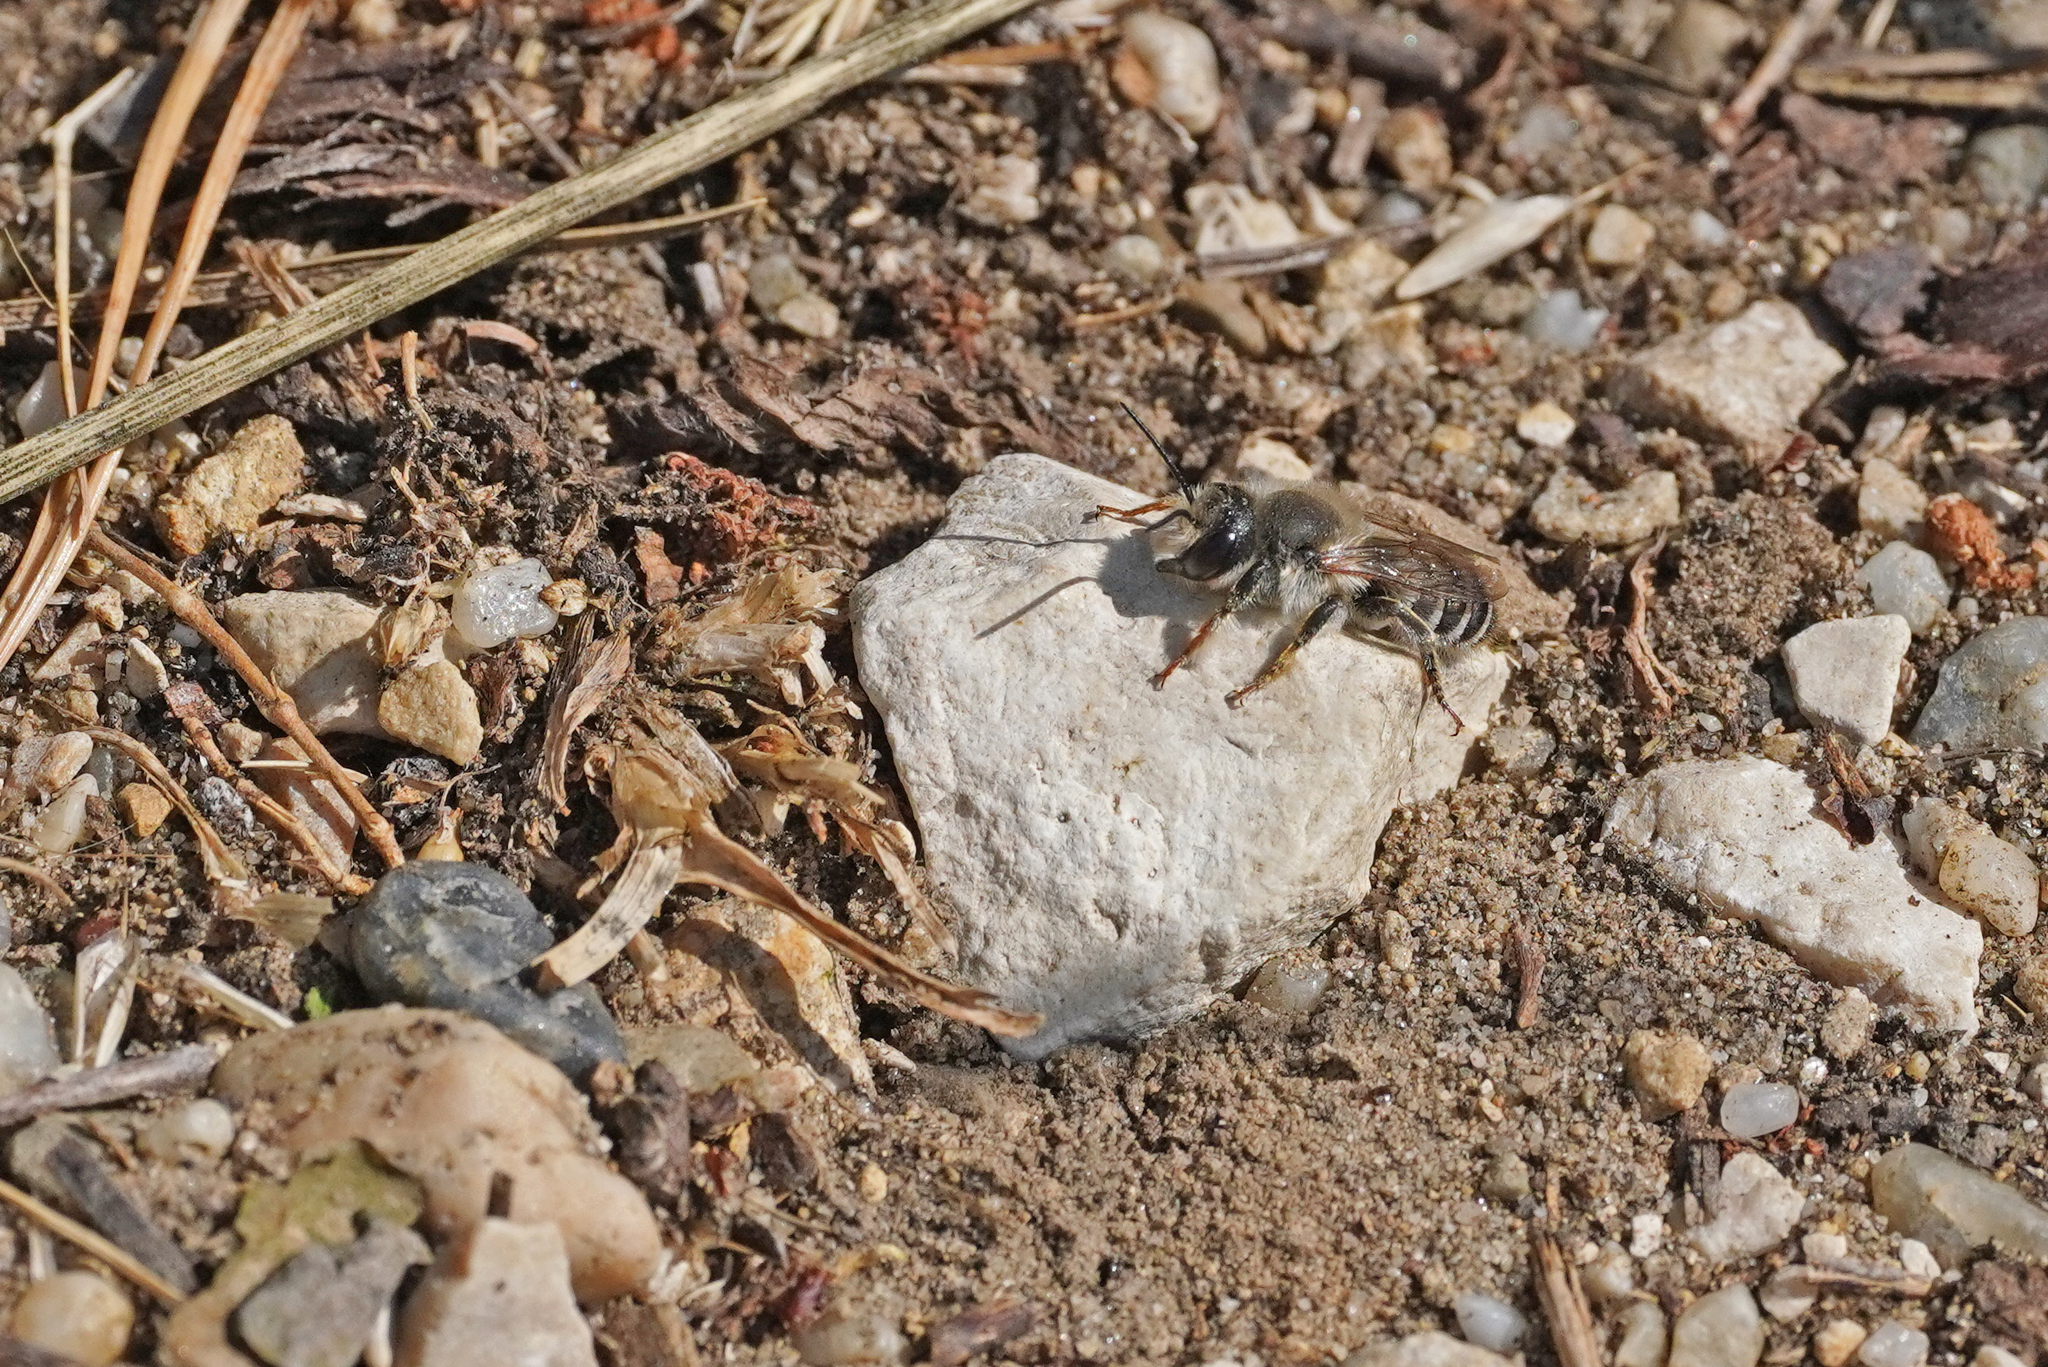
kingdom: Animalia
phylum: Arthropoda
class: Insecta
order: Hymenoptera
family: Megachilidae
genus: Megachile
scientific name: Megachile ericetorum
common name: Leafcutter bee
